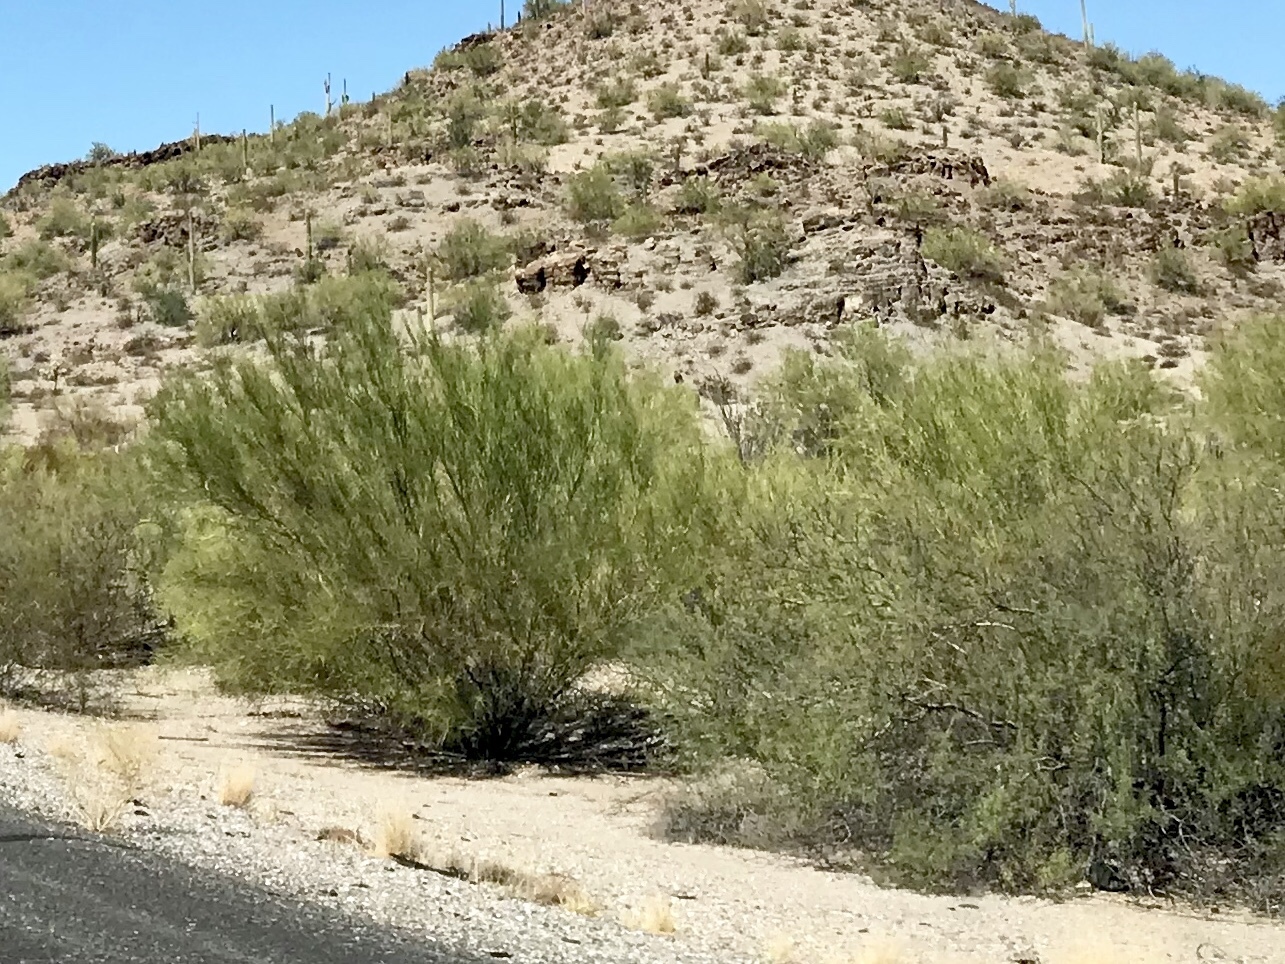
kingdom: Plantae
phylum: Tracheophyta
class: Magnoliopsida
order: Fabales
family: Fabaceae
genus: Parkinsonia
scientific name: Parkinsonia florida
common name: Blue paloverde
